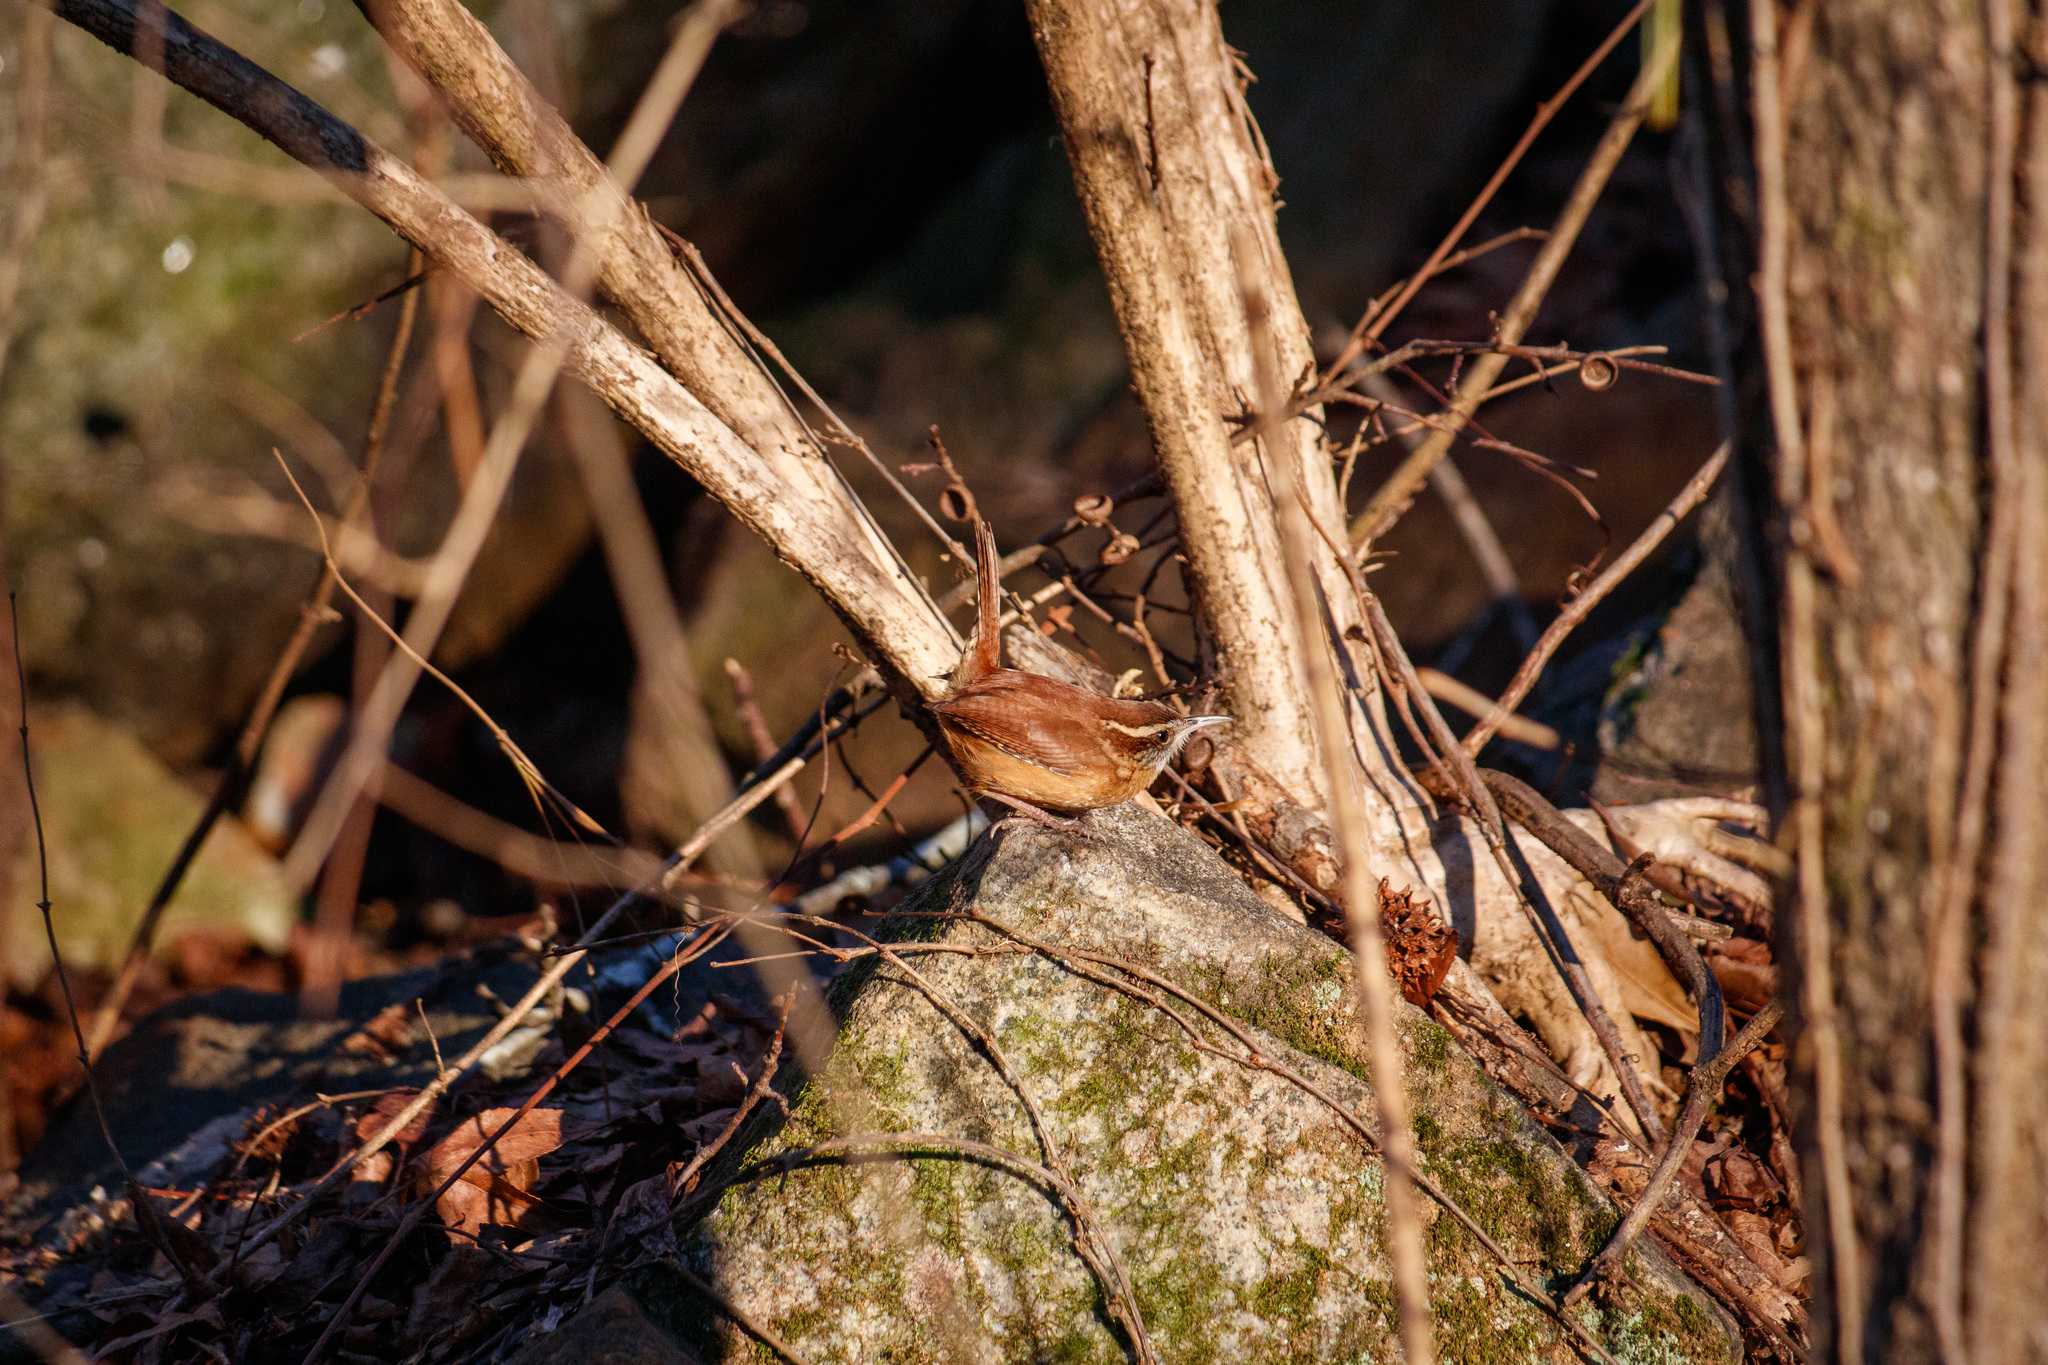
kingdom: Animalia
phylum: Chordata
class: Aves
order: Passeriformes
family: Troglodytidae
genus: Thryothorus
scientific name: Thryothorus ludovicianus
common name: Carolina wren
